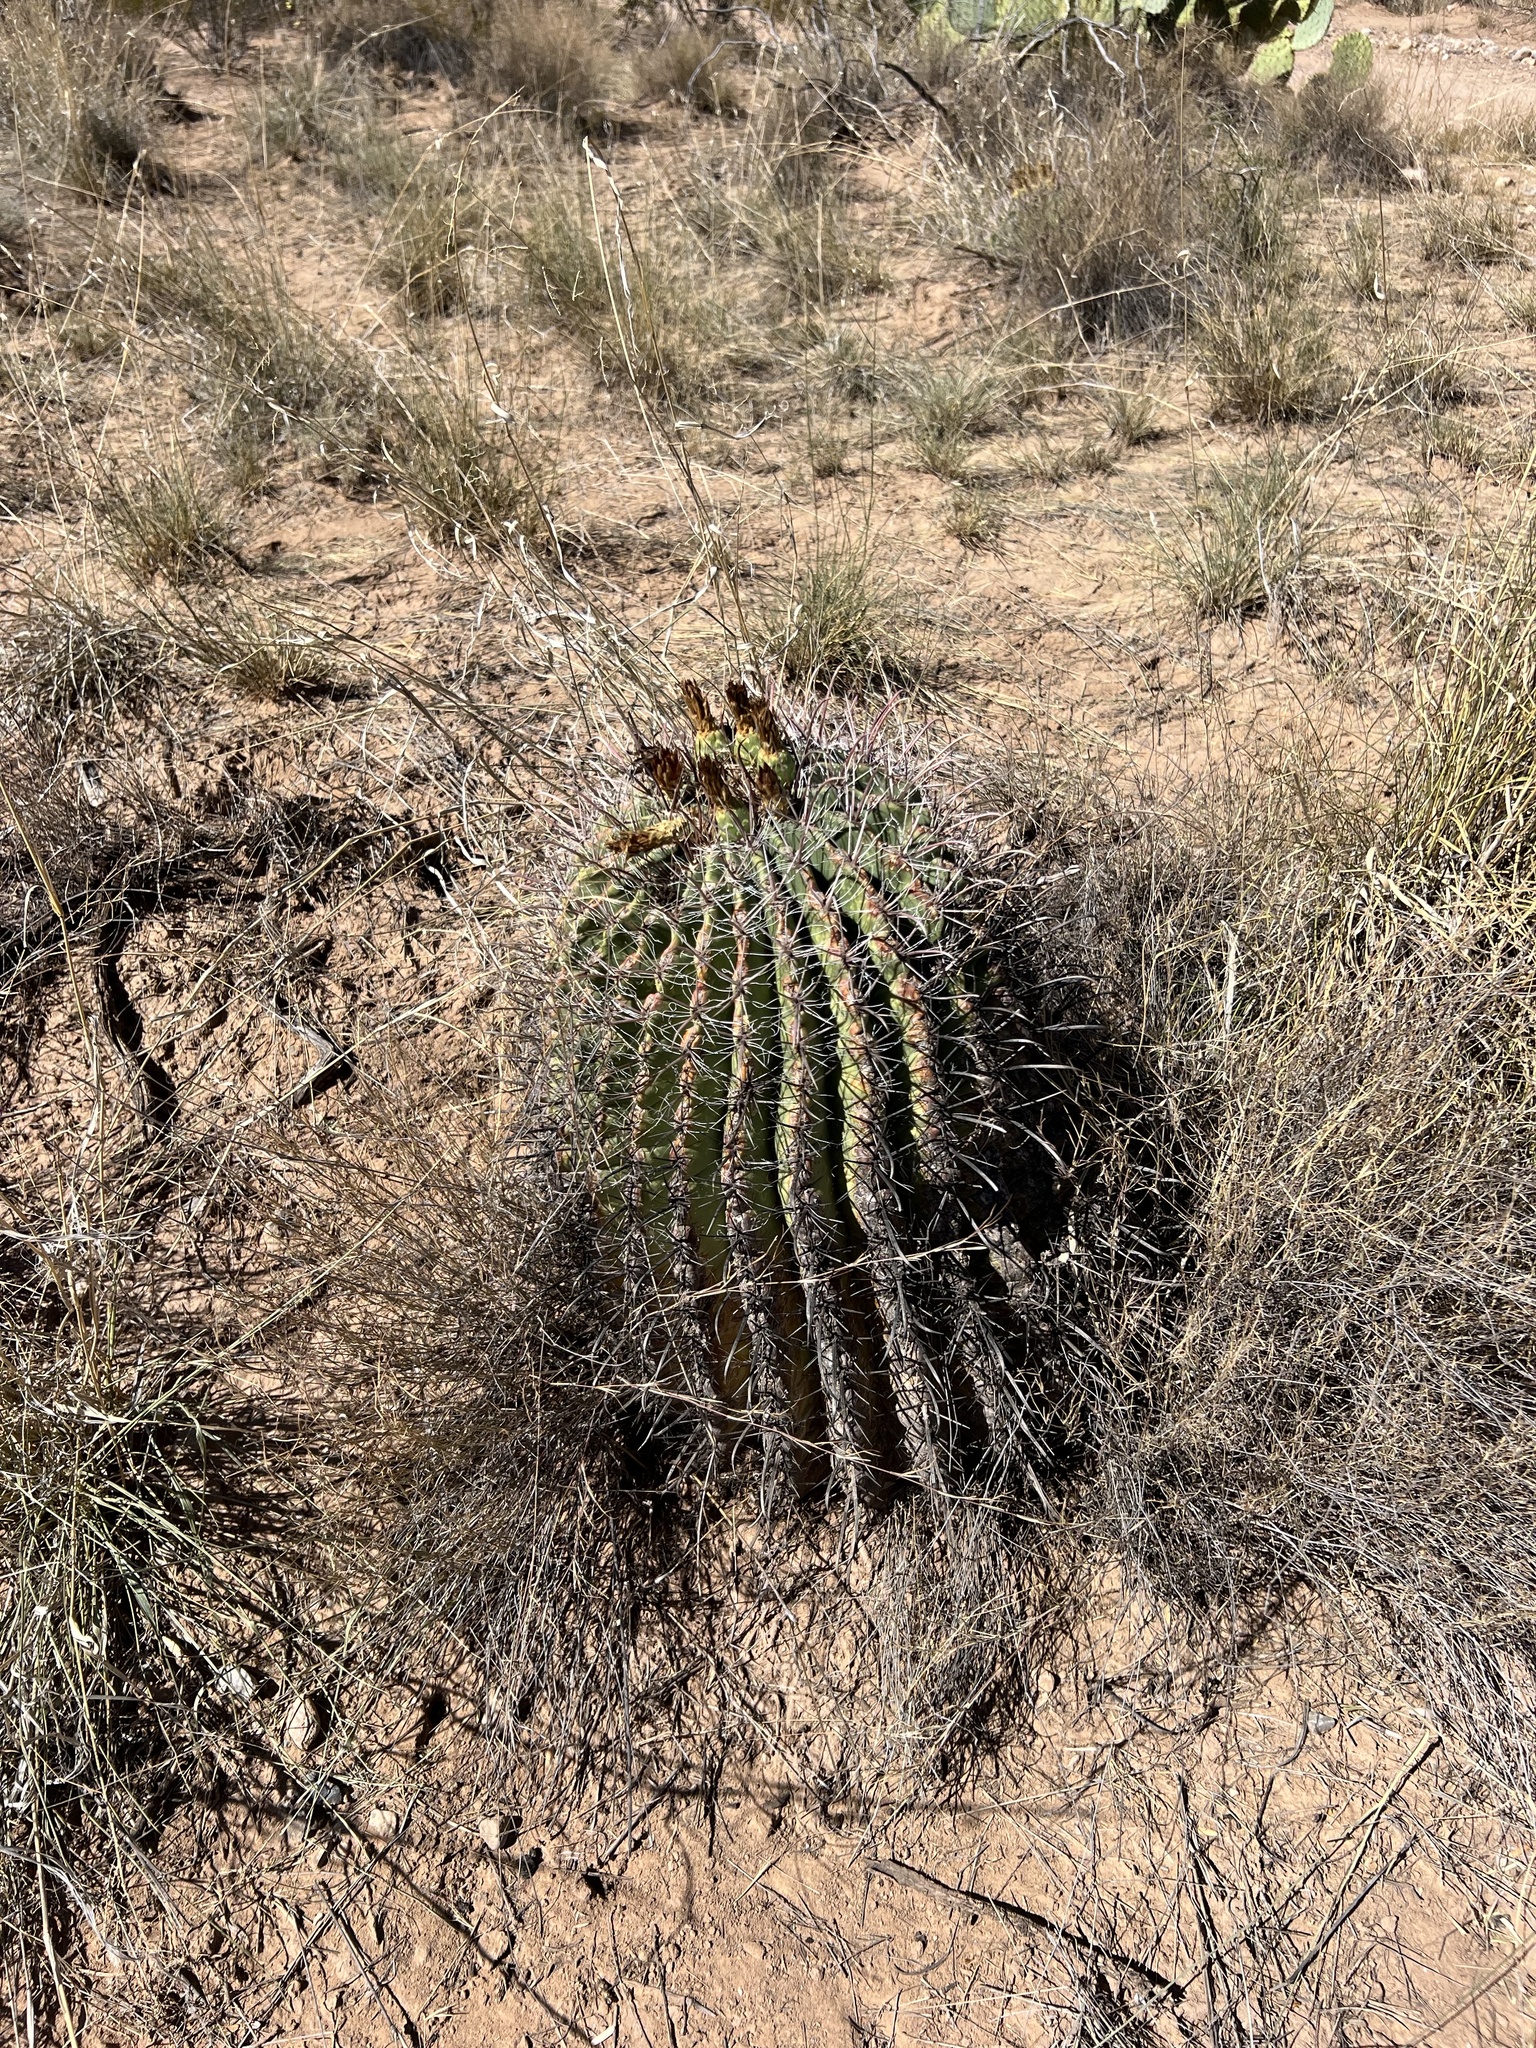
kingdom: Plantae
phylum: Tracheophyta
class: Magnoliopsida
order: Caryophyllales
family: Cactaceae
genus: Ferocactus
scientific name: Ferocactus wislizeni
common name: Candy barrel cactus
